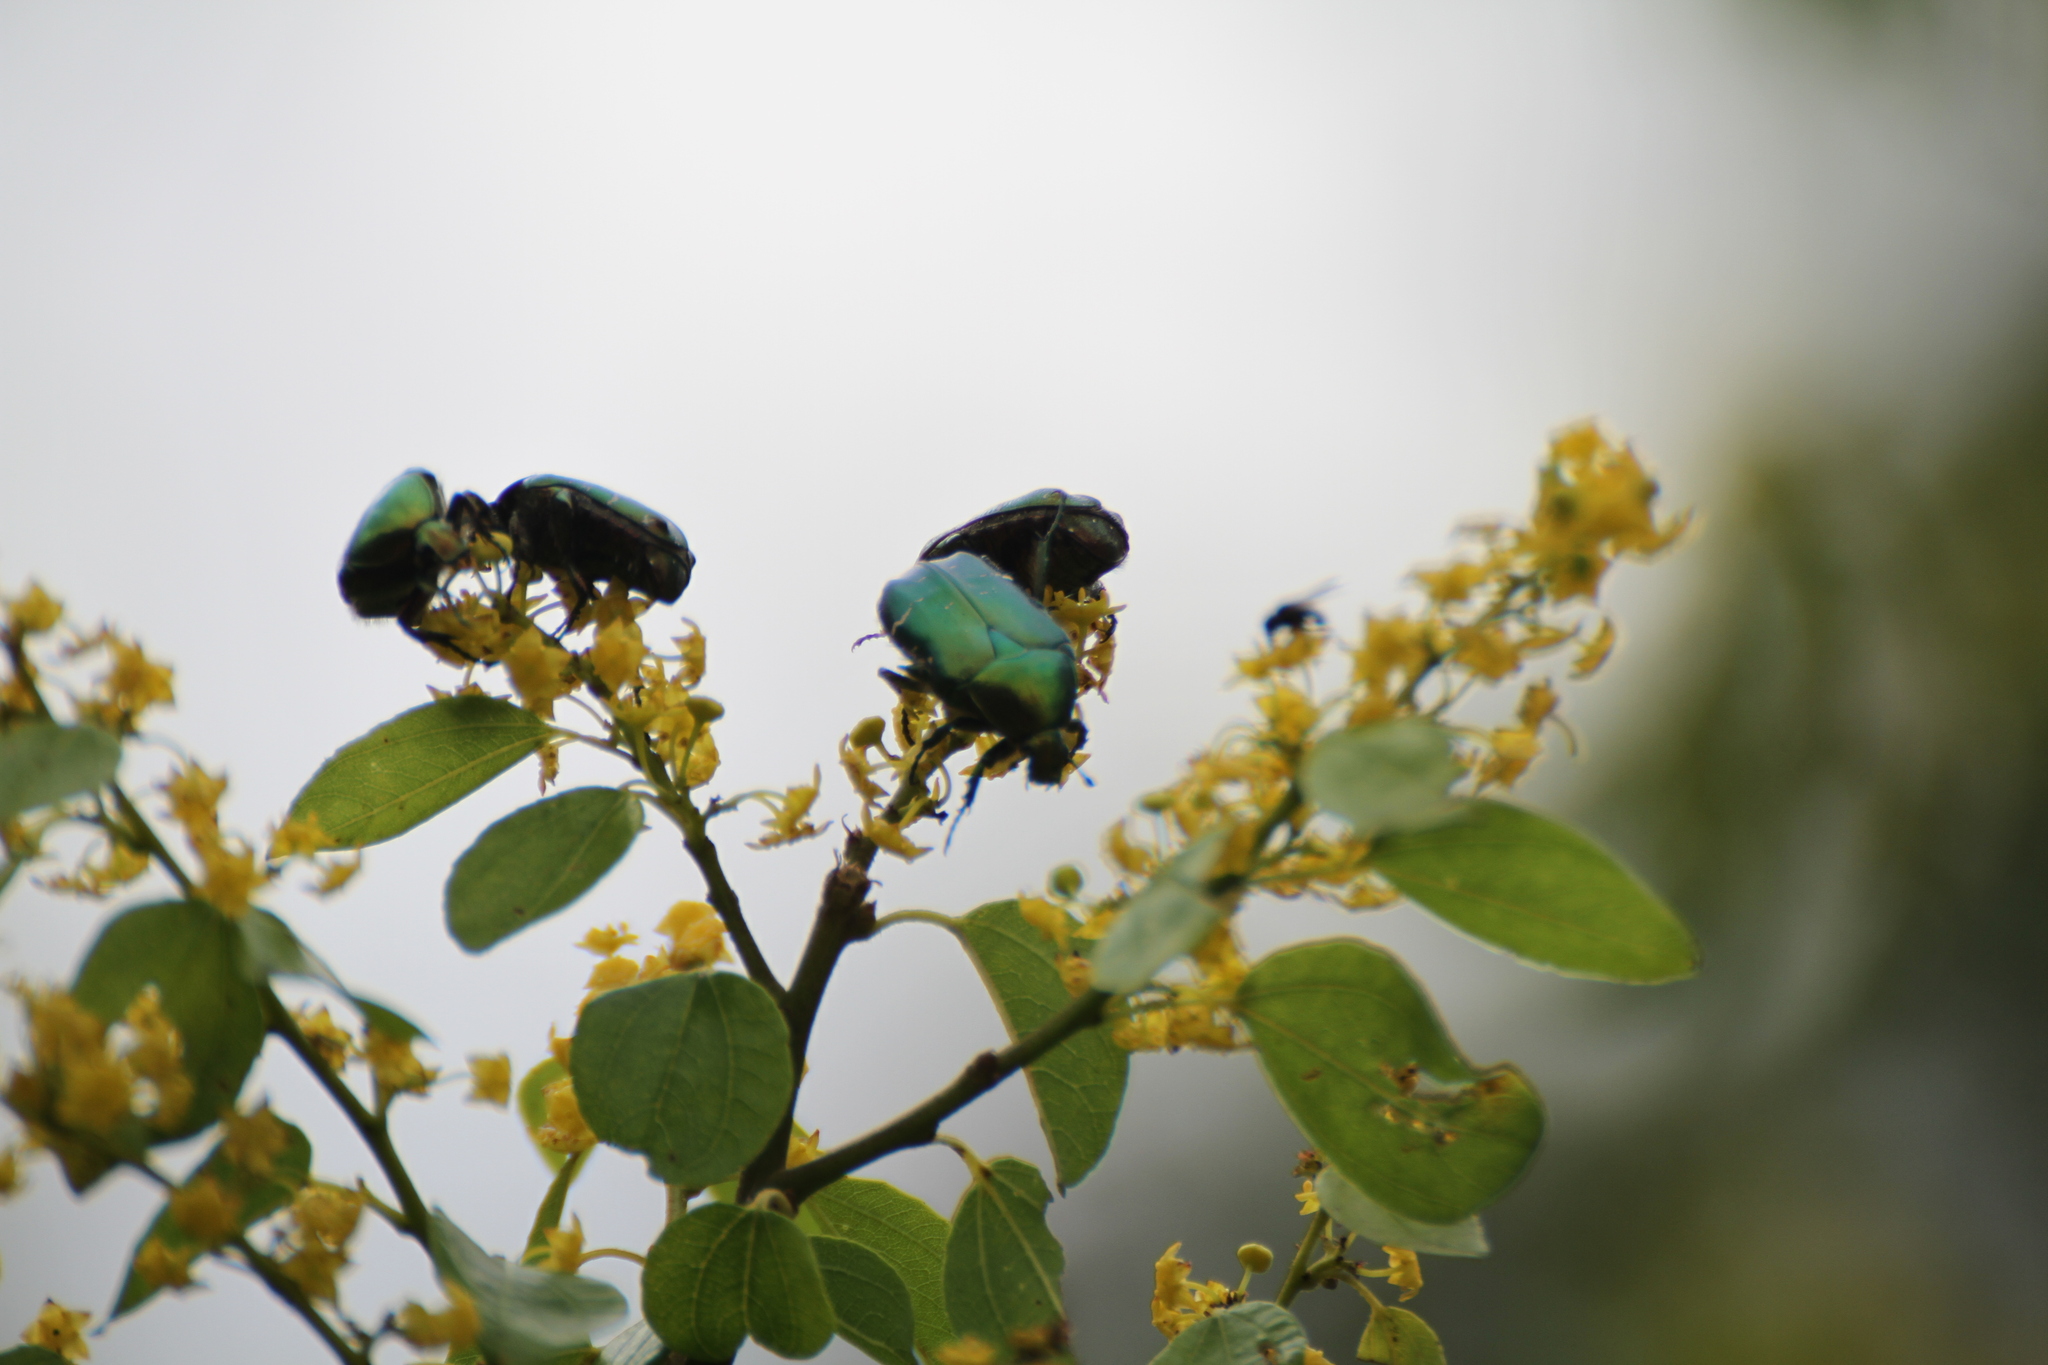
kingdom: Animalia
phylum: Arthropoda
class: Insecta
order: Coleoptera
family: Scarabaeidae
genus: Cetonia
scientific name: Cetonia aurata
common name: Rose chafer
